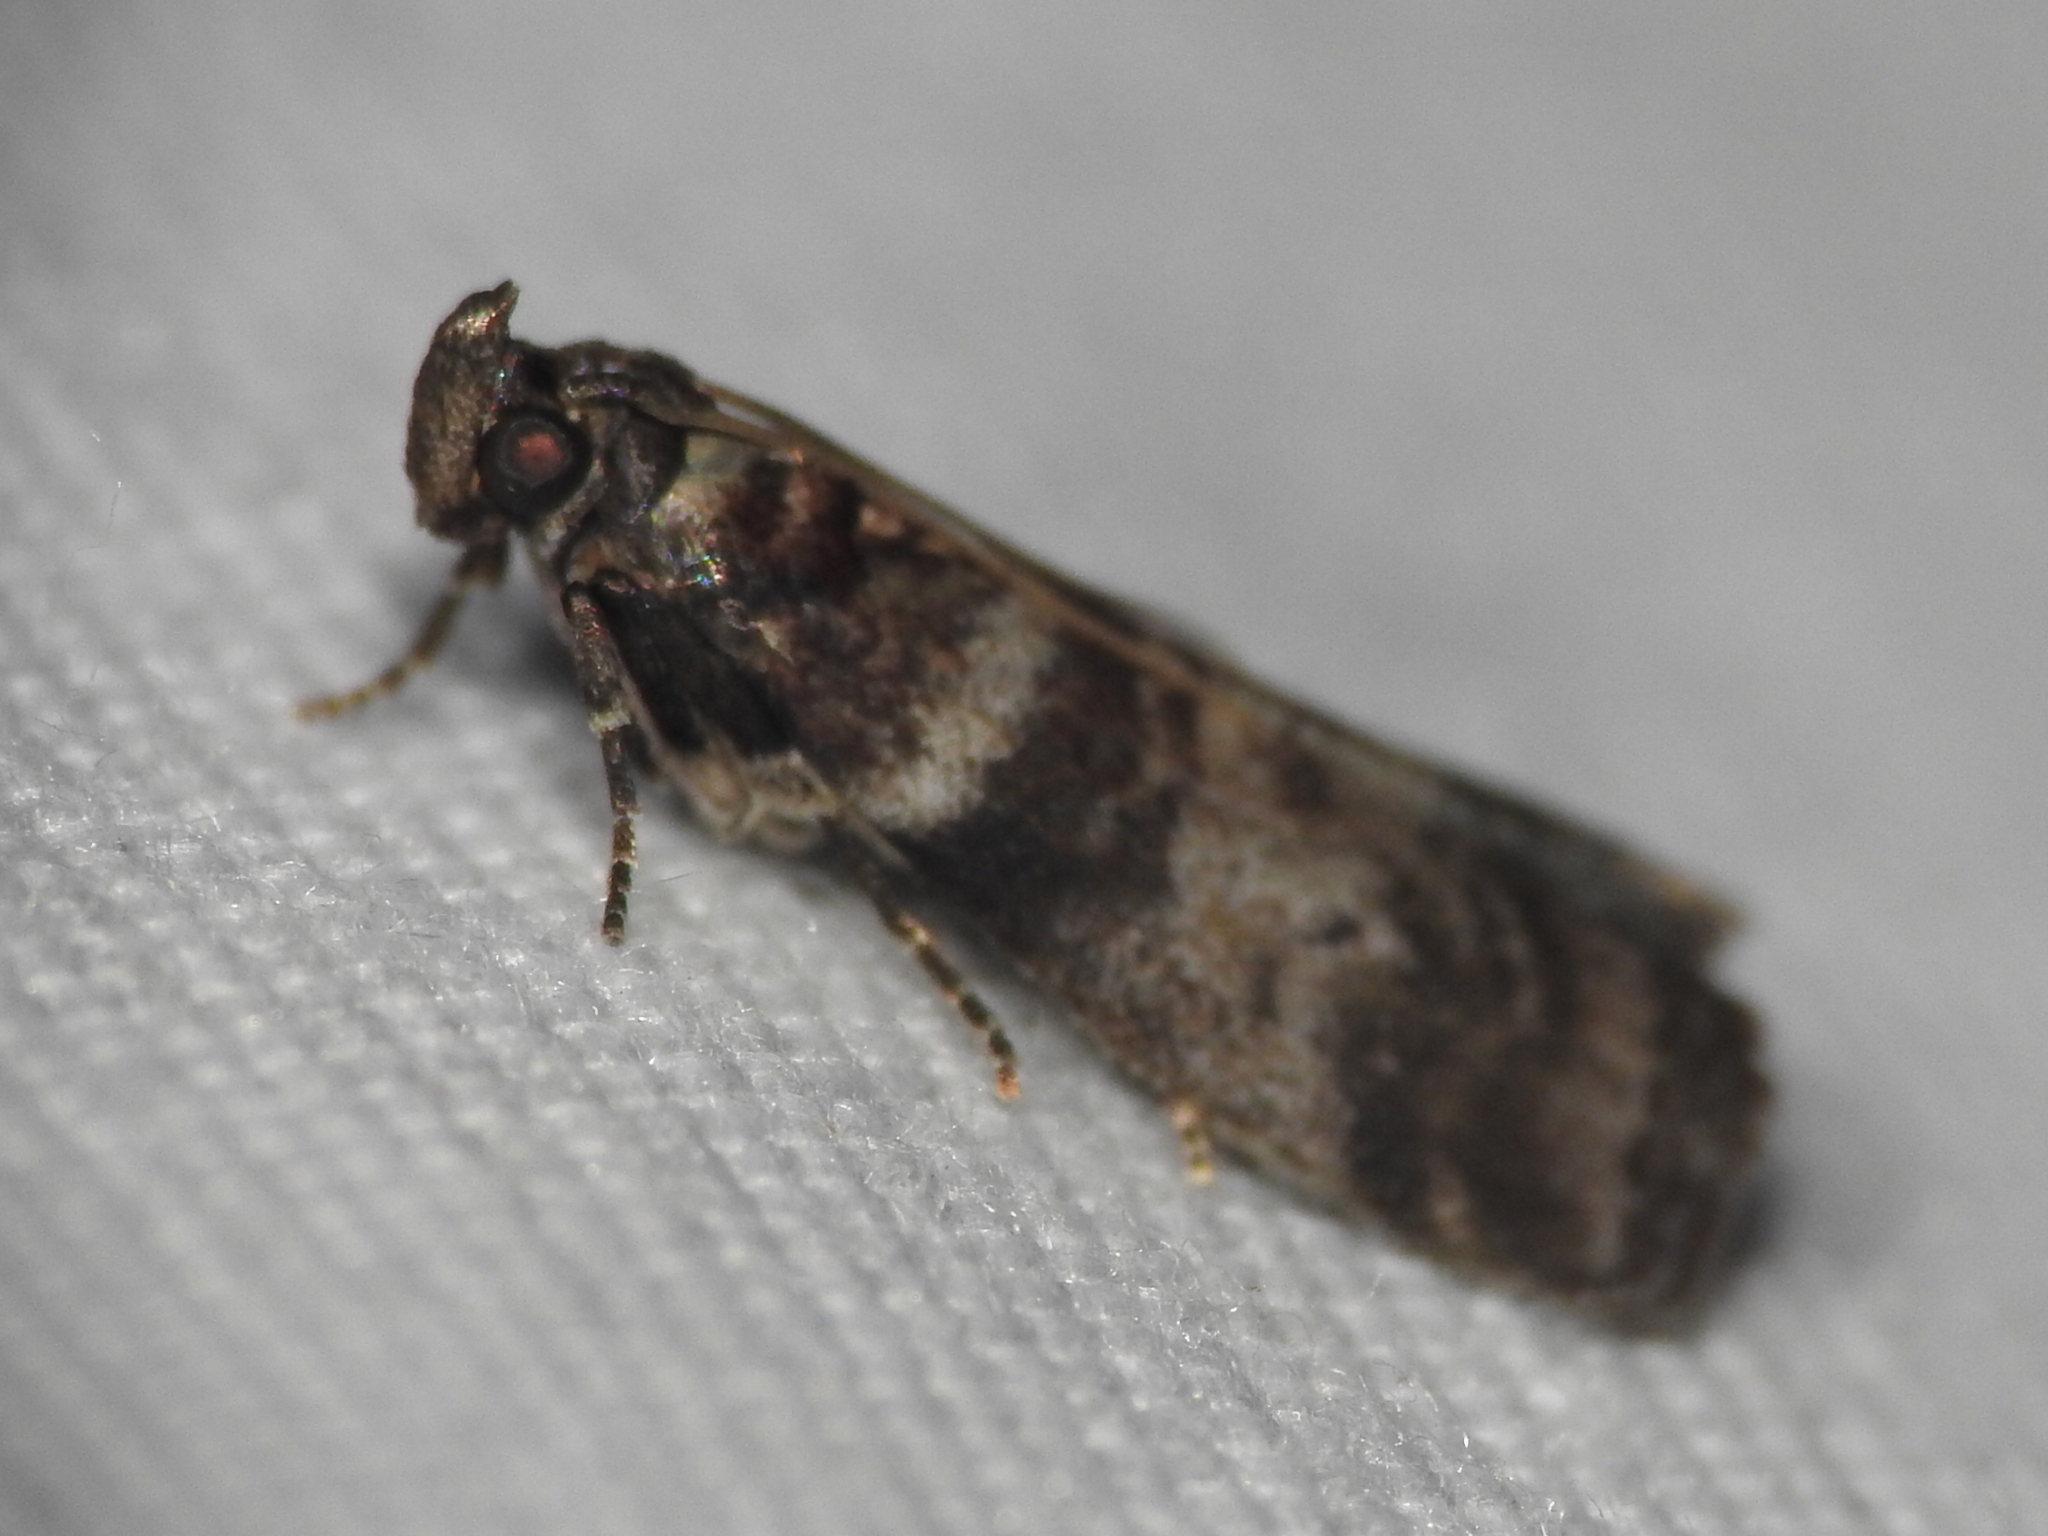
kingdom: Animalia
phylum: Arthropoda
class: Insecta
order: Lepidoptera
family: Pyralidae
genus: Sciota
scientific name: Sciota uvinella
